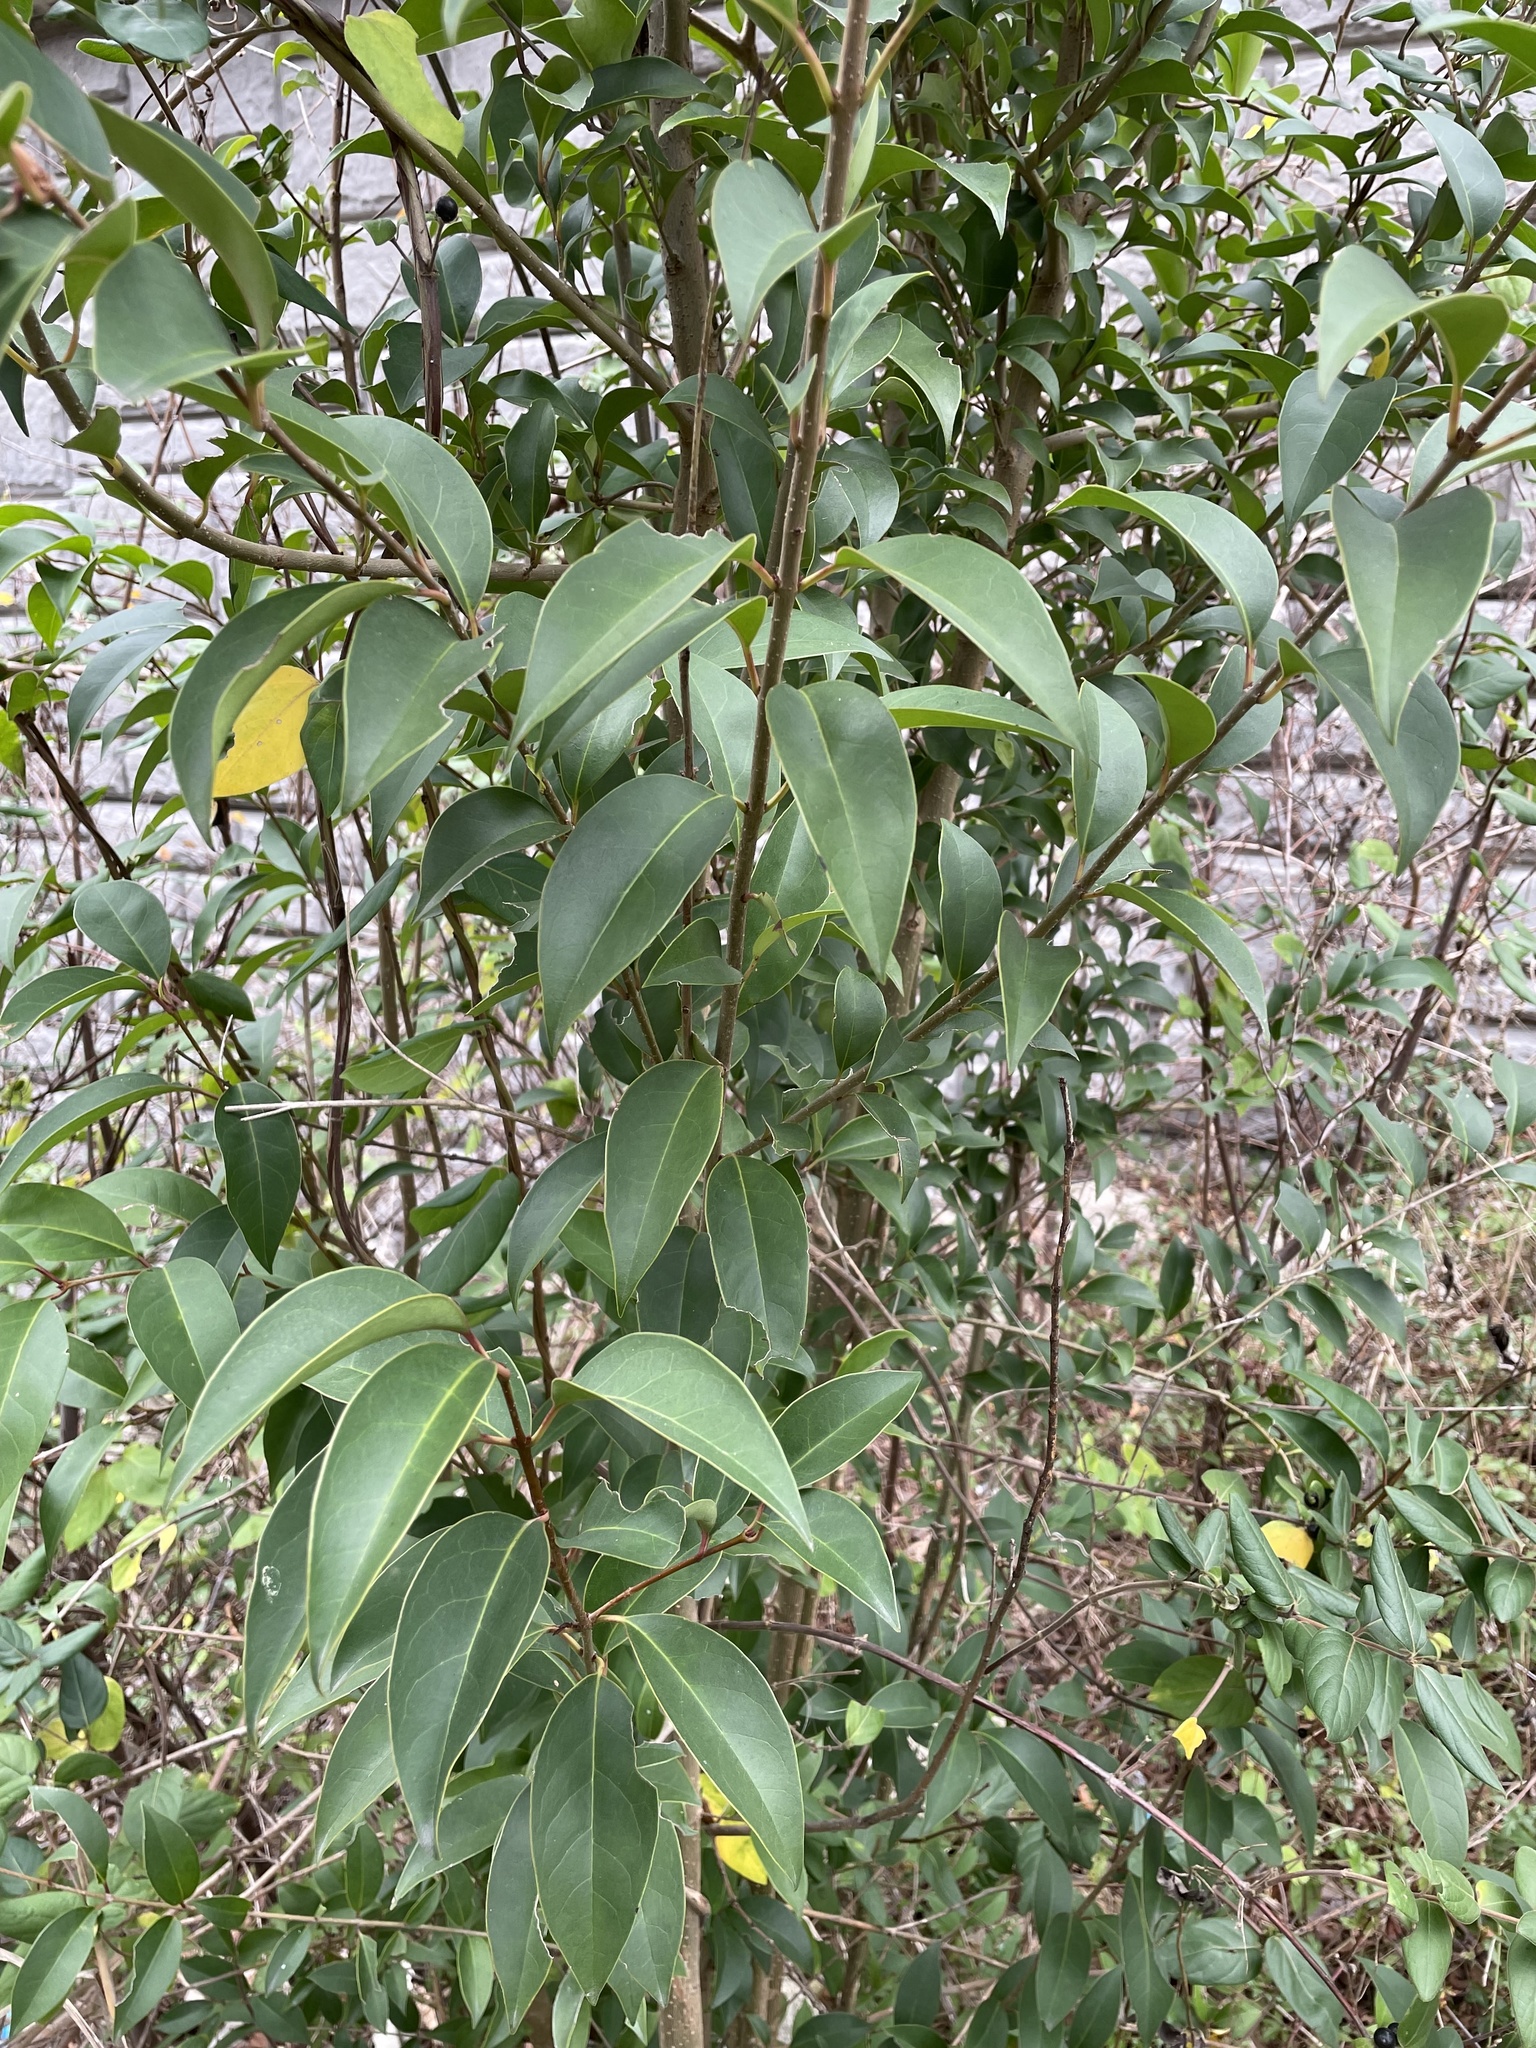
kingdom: Plantae
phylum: Tracheophyta
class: Magnoliopsida
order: Lamiales
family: Oleaceae
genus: Ligustrum
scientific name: Ligustrum lucidum
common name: Glossy privet
